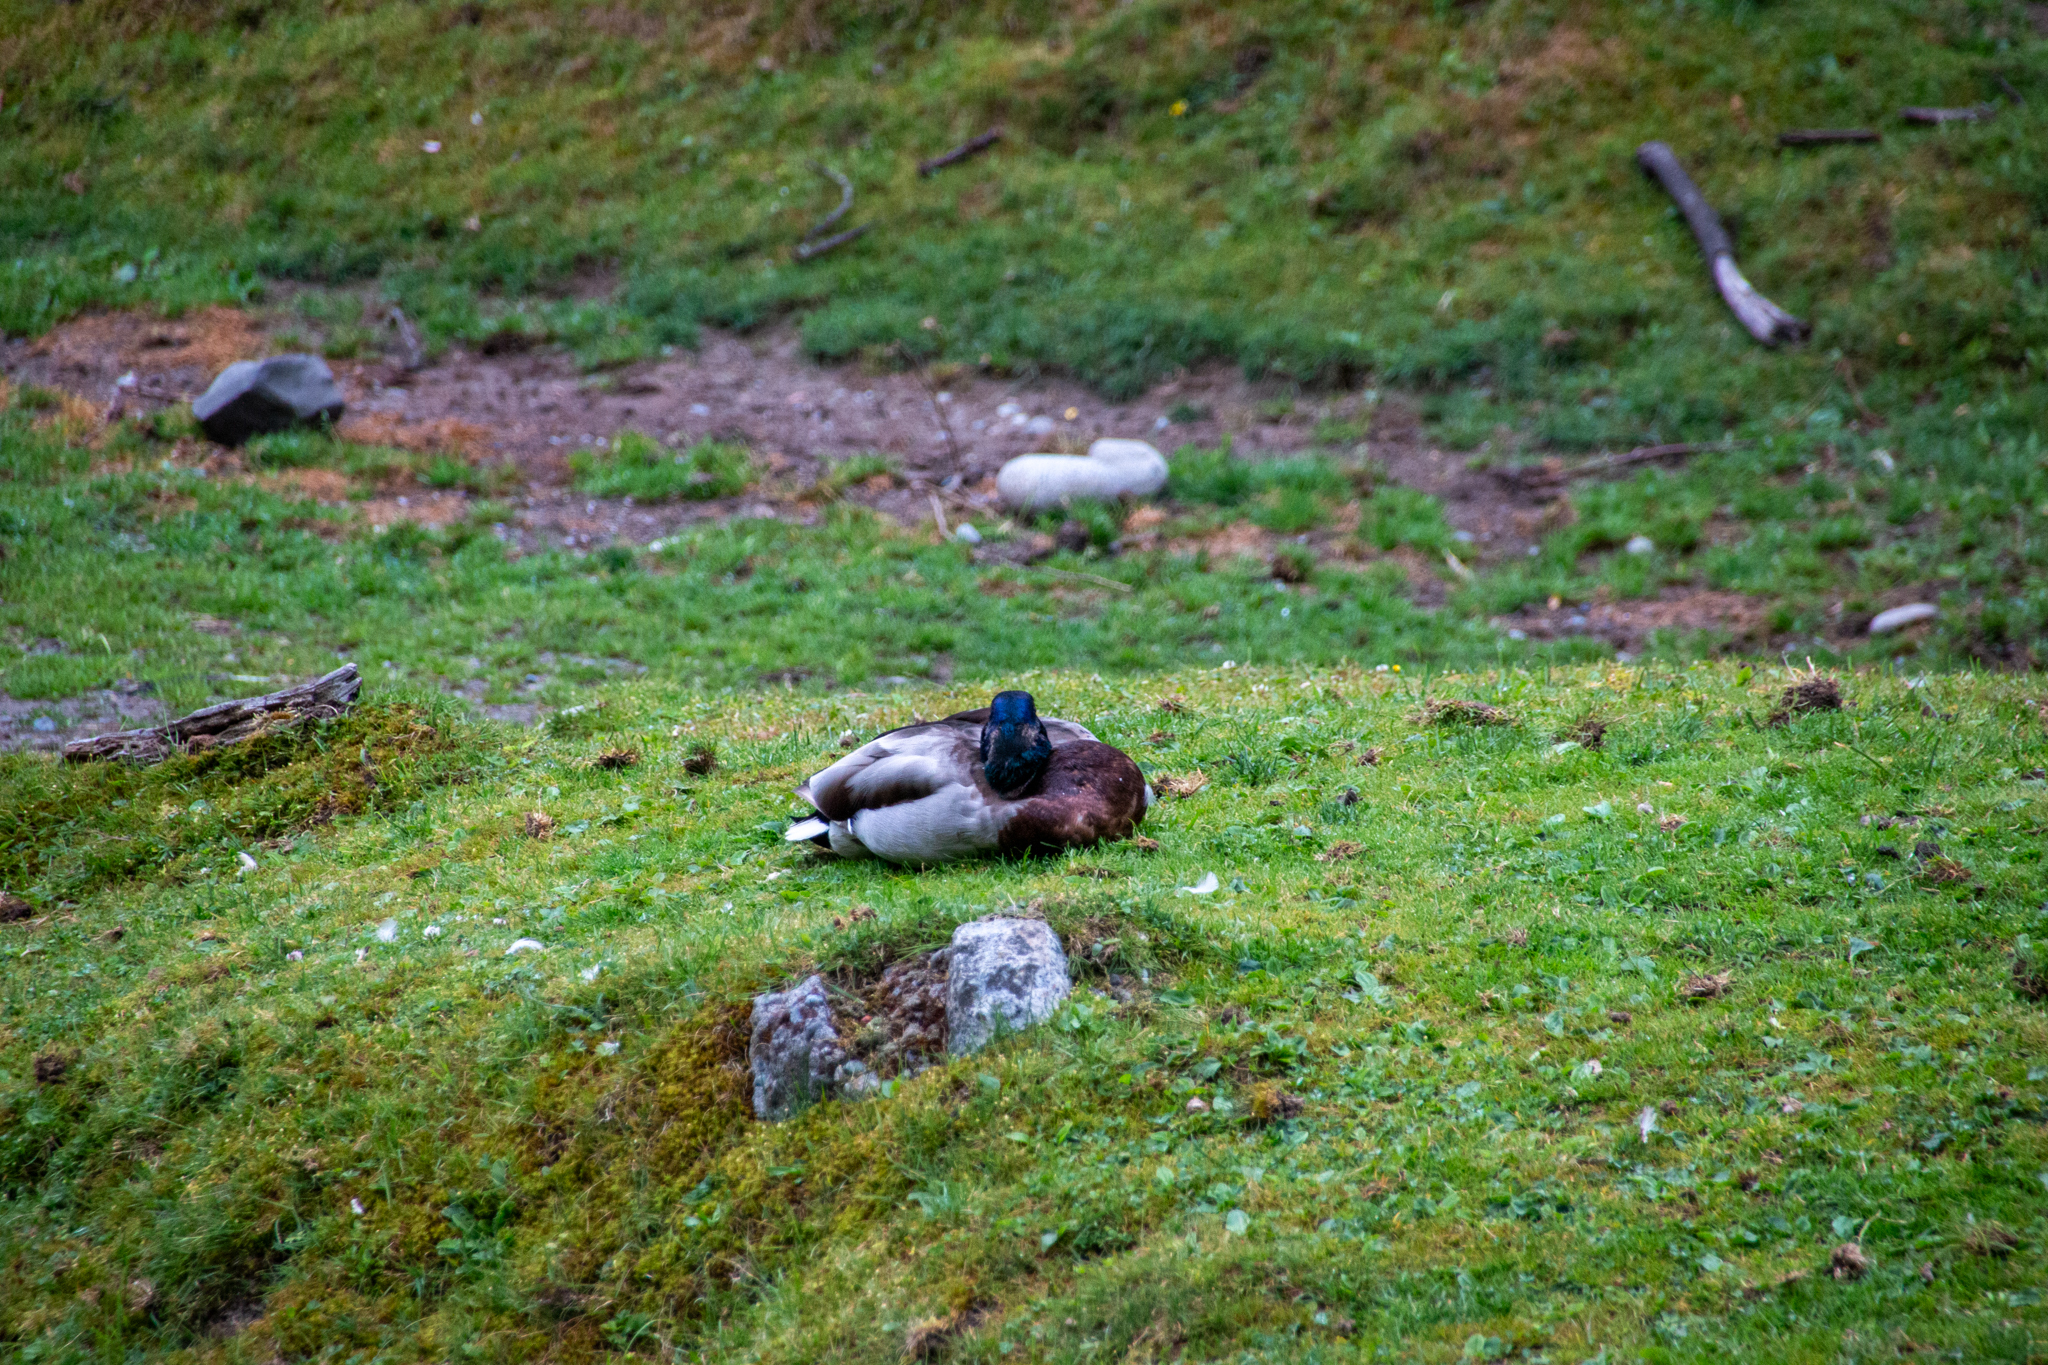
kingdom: Animalia
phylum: Chordata
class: Aves
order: Anseriformes
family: Anatidae
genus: Anas
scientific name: Anas platyrhynchos
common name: Mallard
